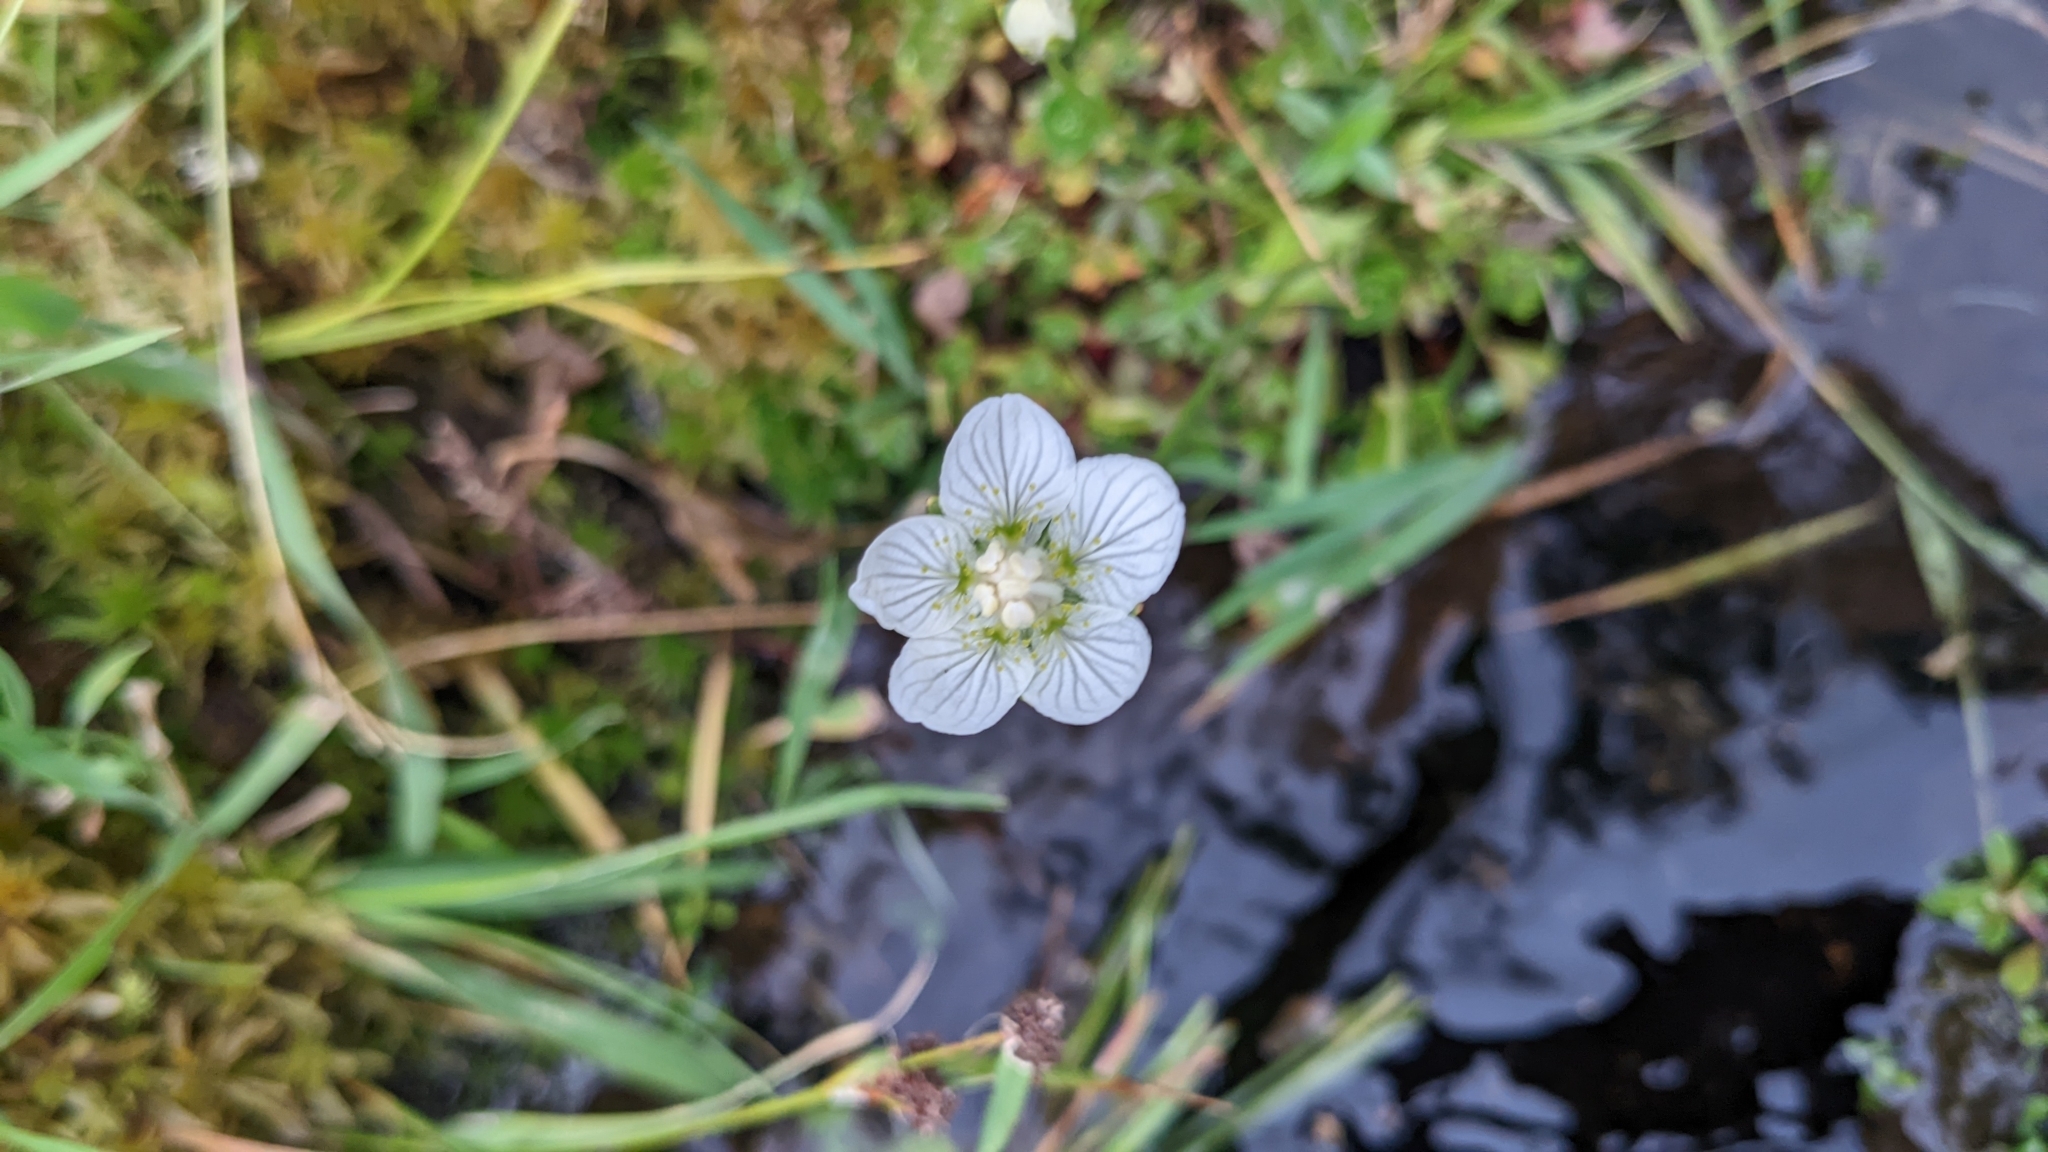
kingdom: Plantae
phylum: Tracheophyta
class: Magnoliopsida
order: Celastrales
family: Parnassiaceae
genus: Parnassia
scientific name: Parnassia palustris
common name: Grass-of-parnassus
